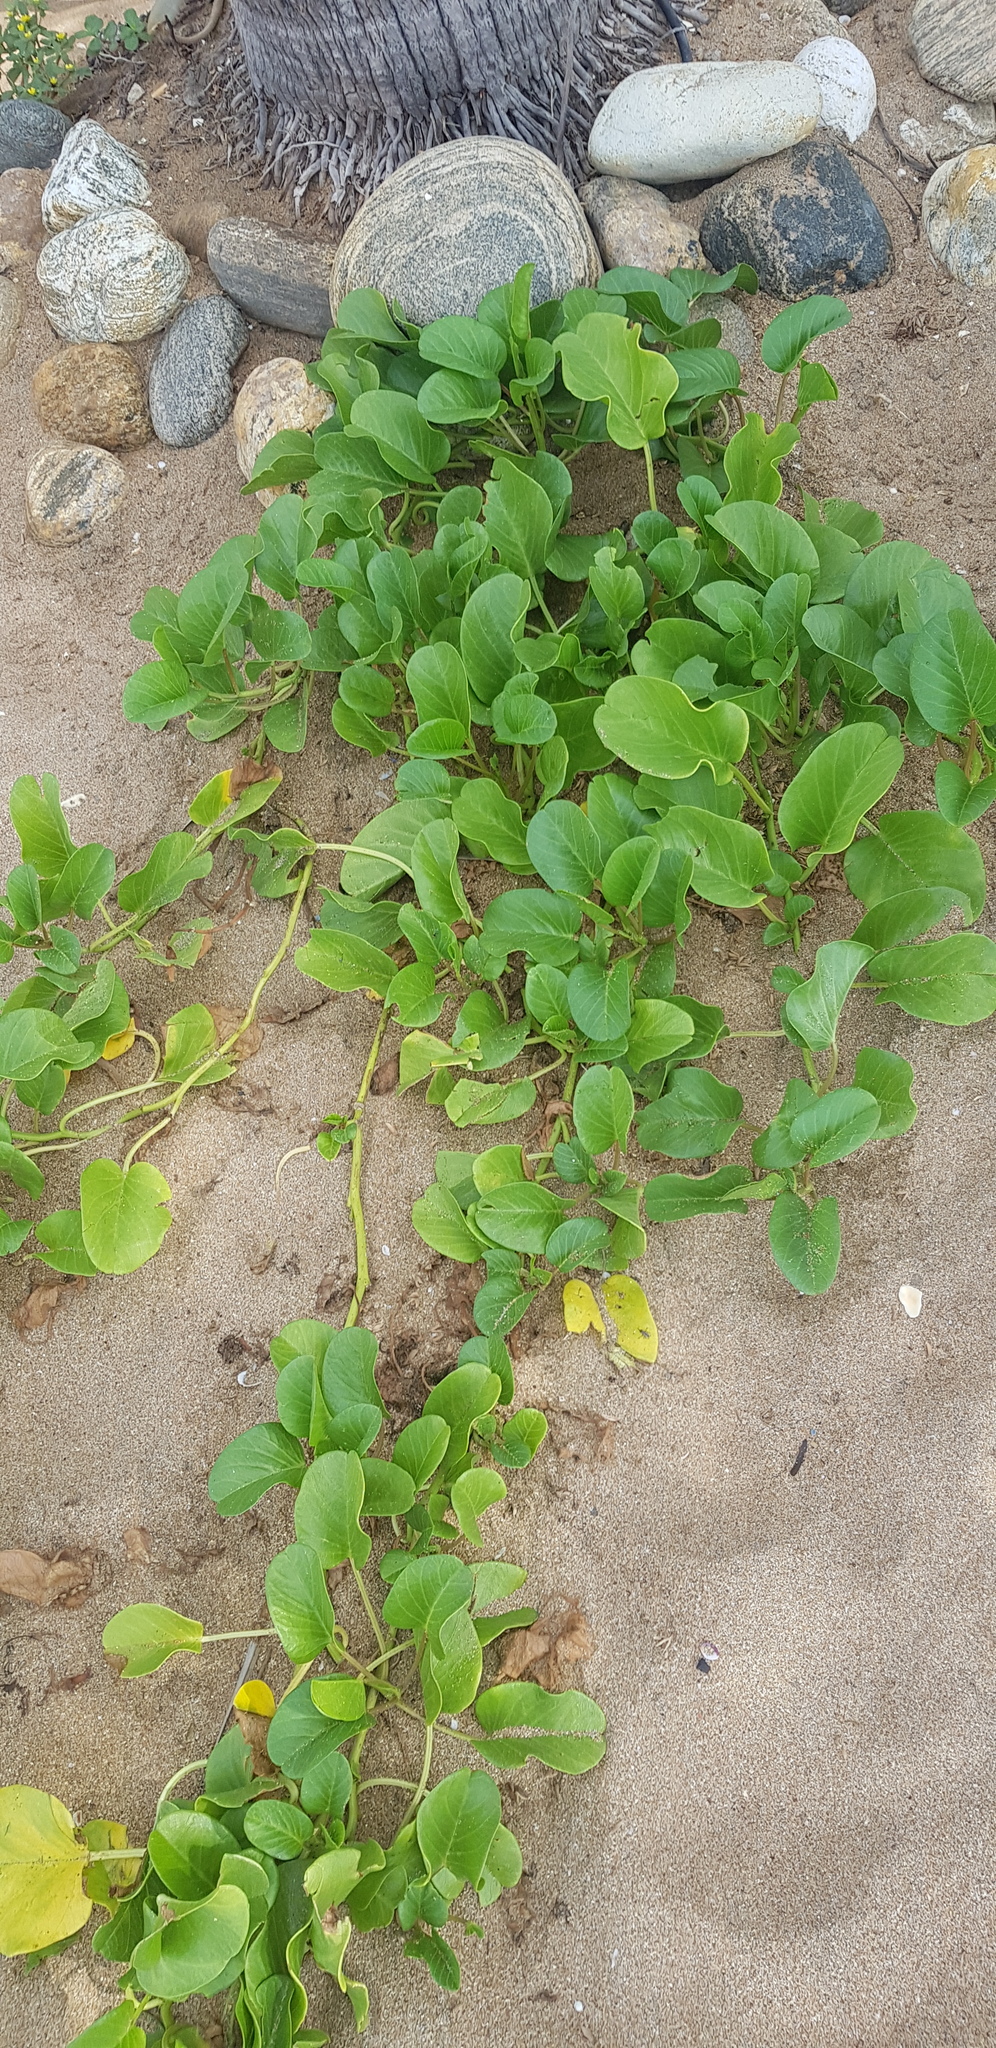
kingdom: Plantae
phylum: Tracheophyta
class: Magnoliopsida
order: Solanales
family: Convolvulaceae
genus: Ipomoea
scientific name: Ipomoea pes-caprae
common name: Beach morning glory
